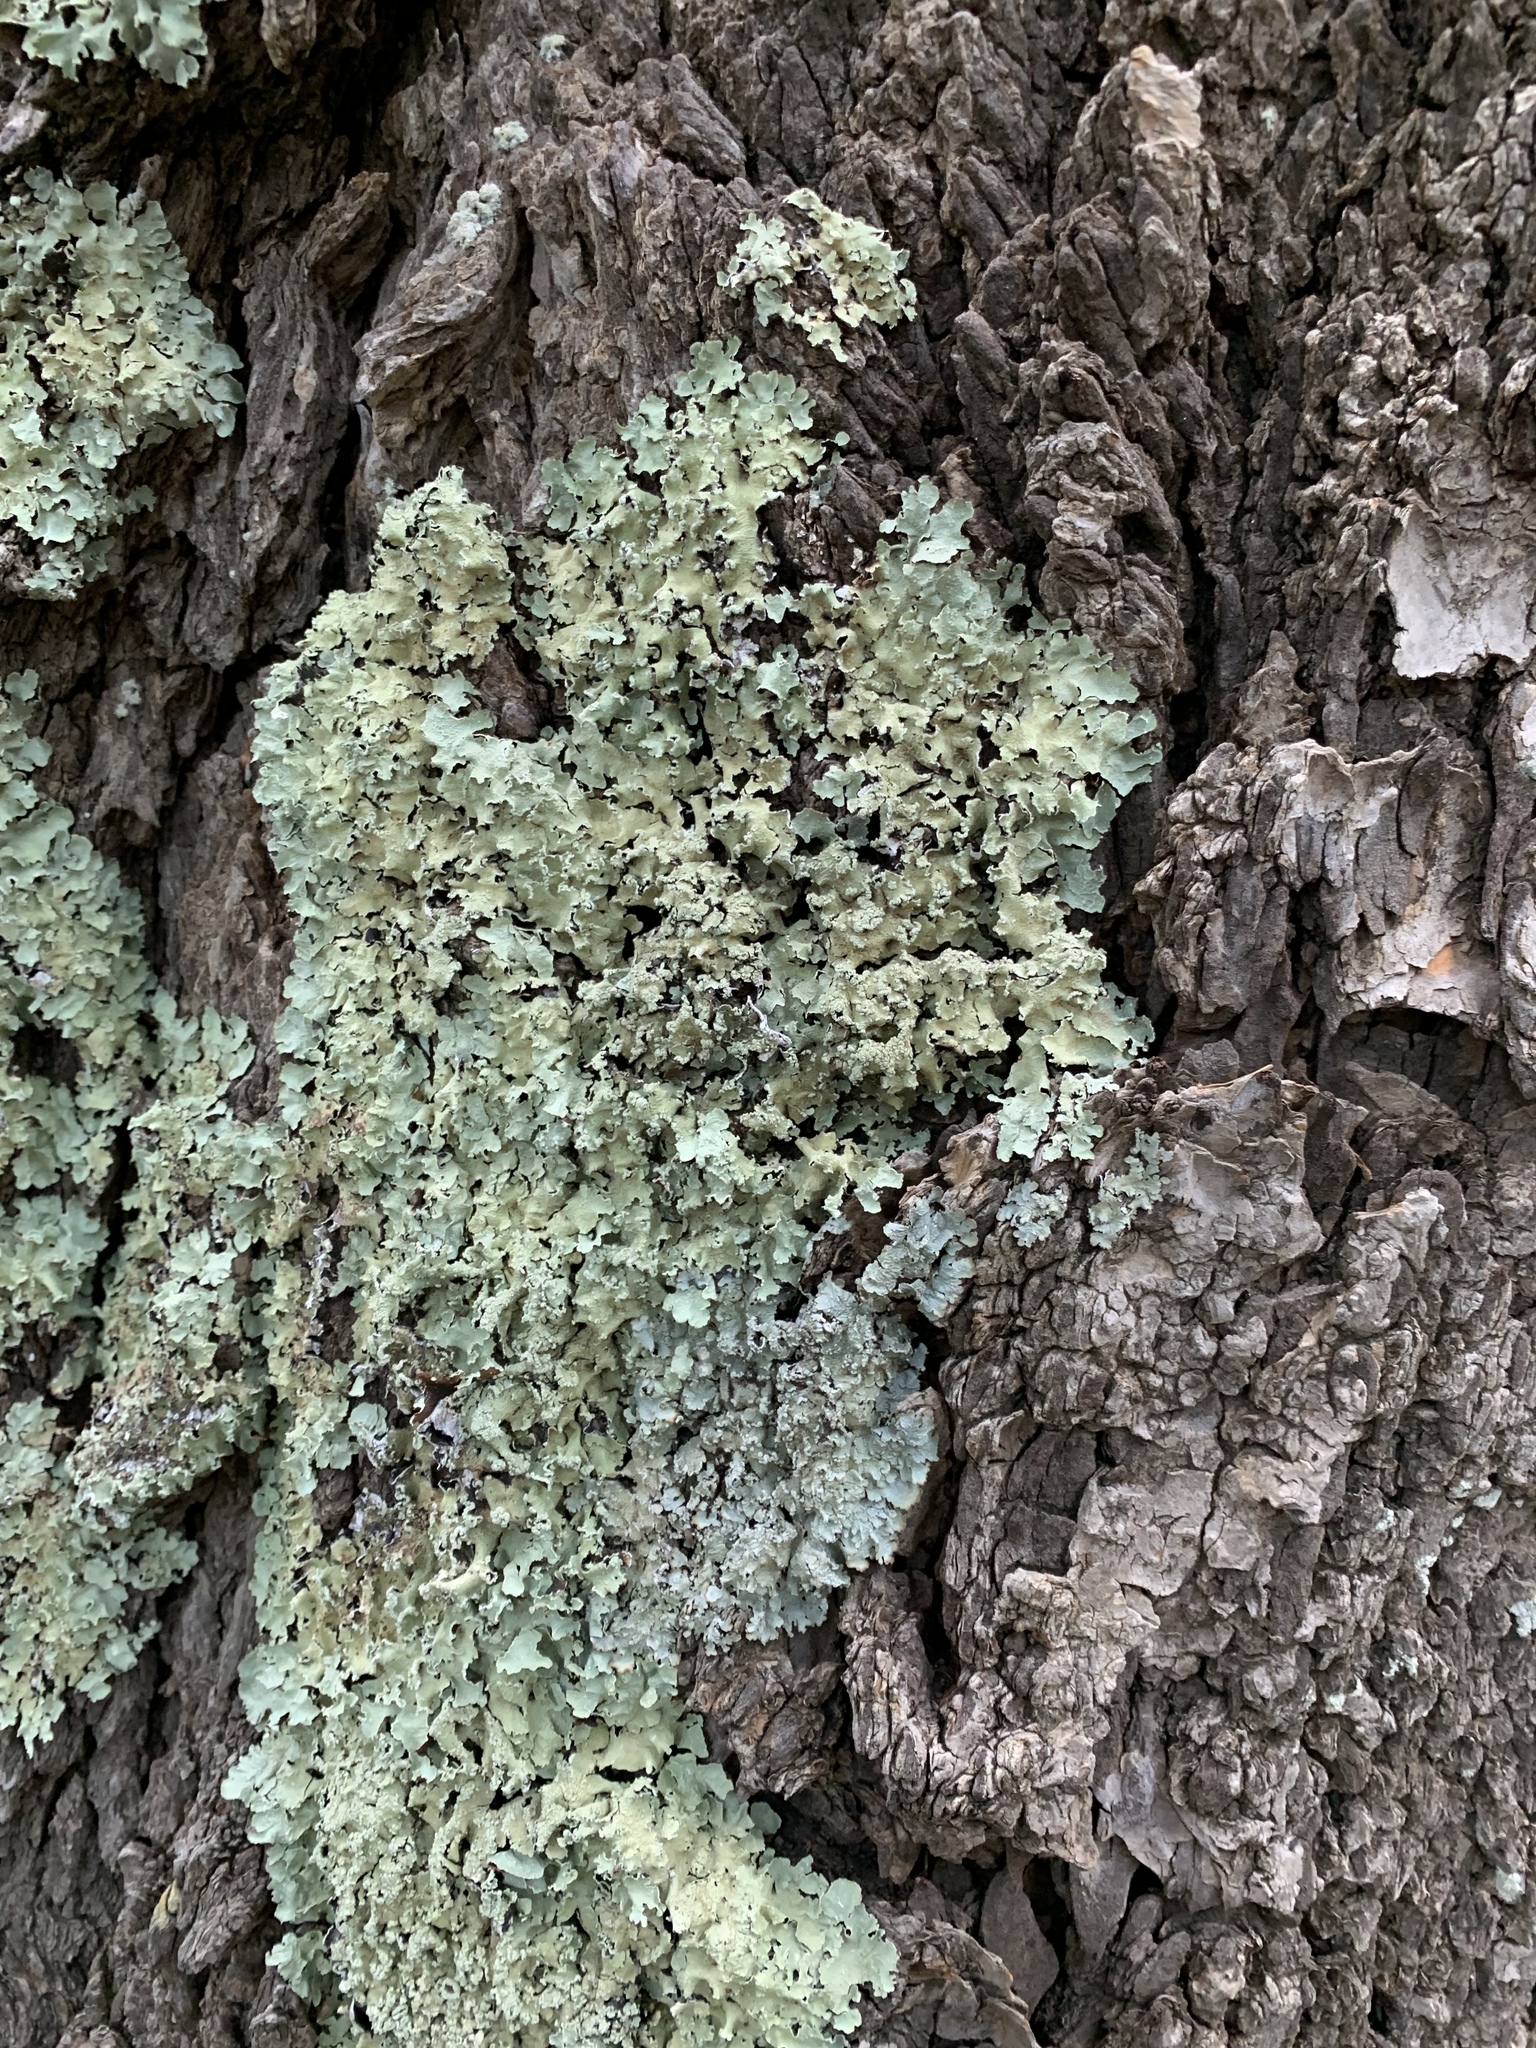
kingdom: Fungi
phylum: Ascomycota
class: Lecanoromycetes
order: Lecanorales
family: Parmeliaceae
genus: Flavopunctelia
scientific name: Flavopunctelia flaventior
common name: Speckled greenshield
